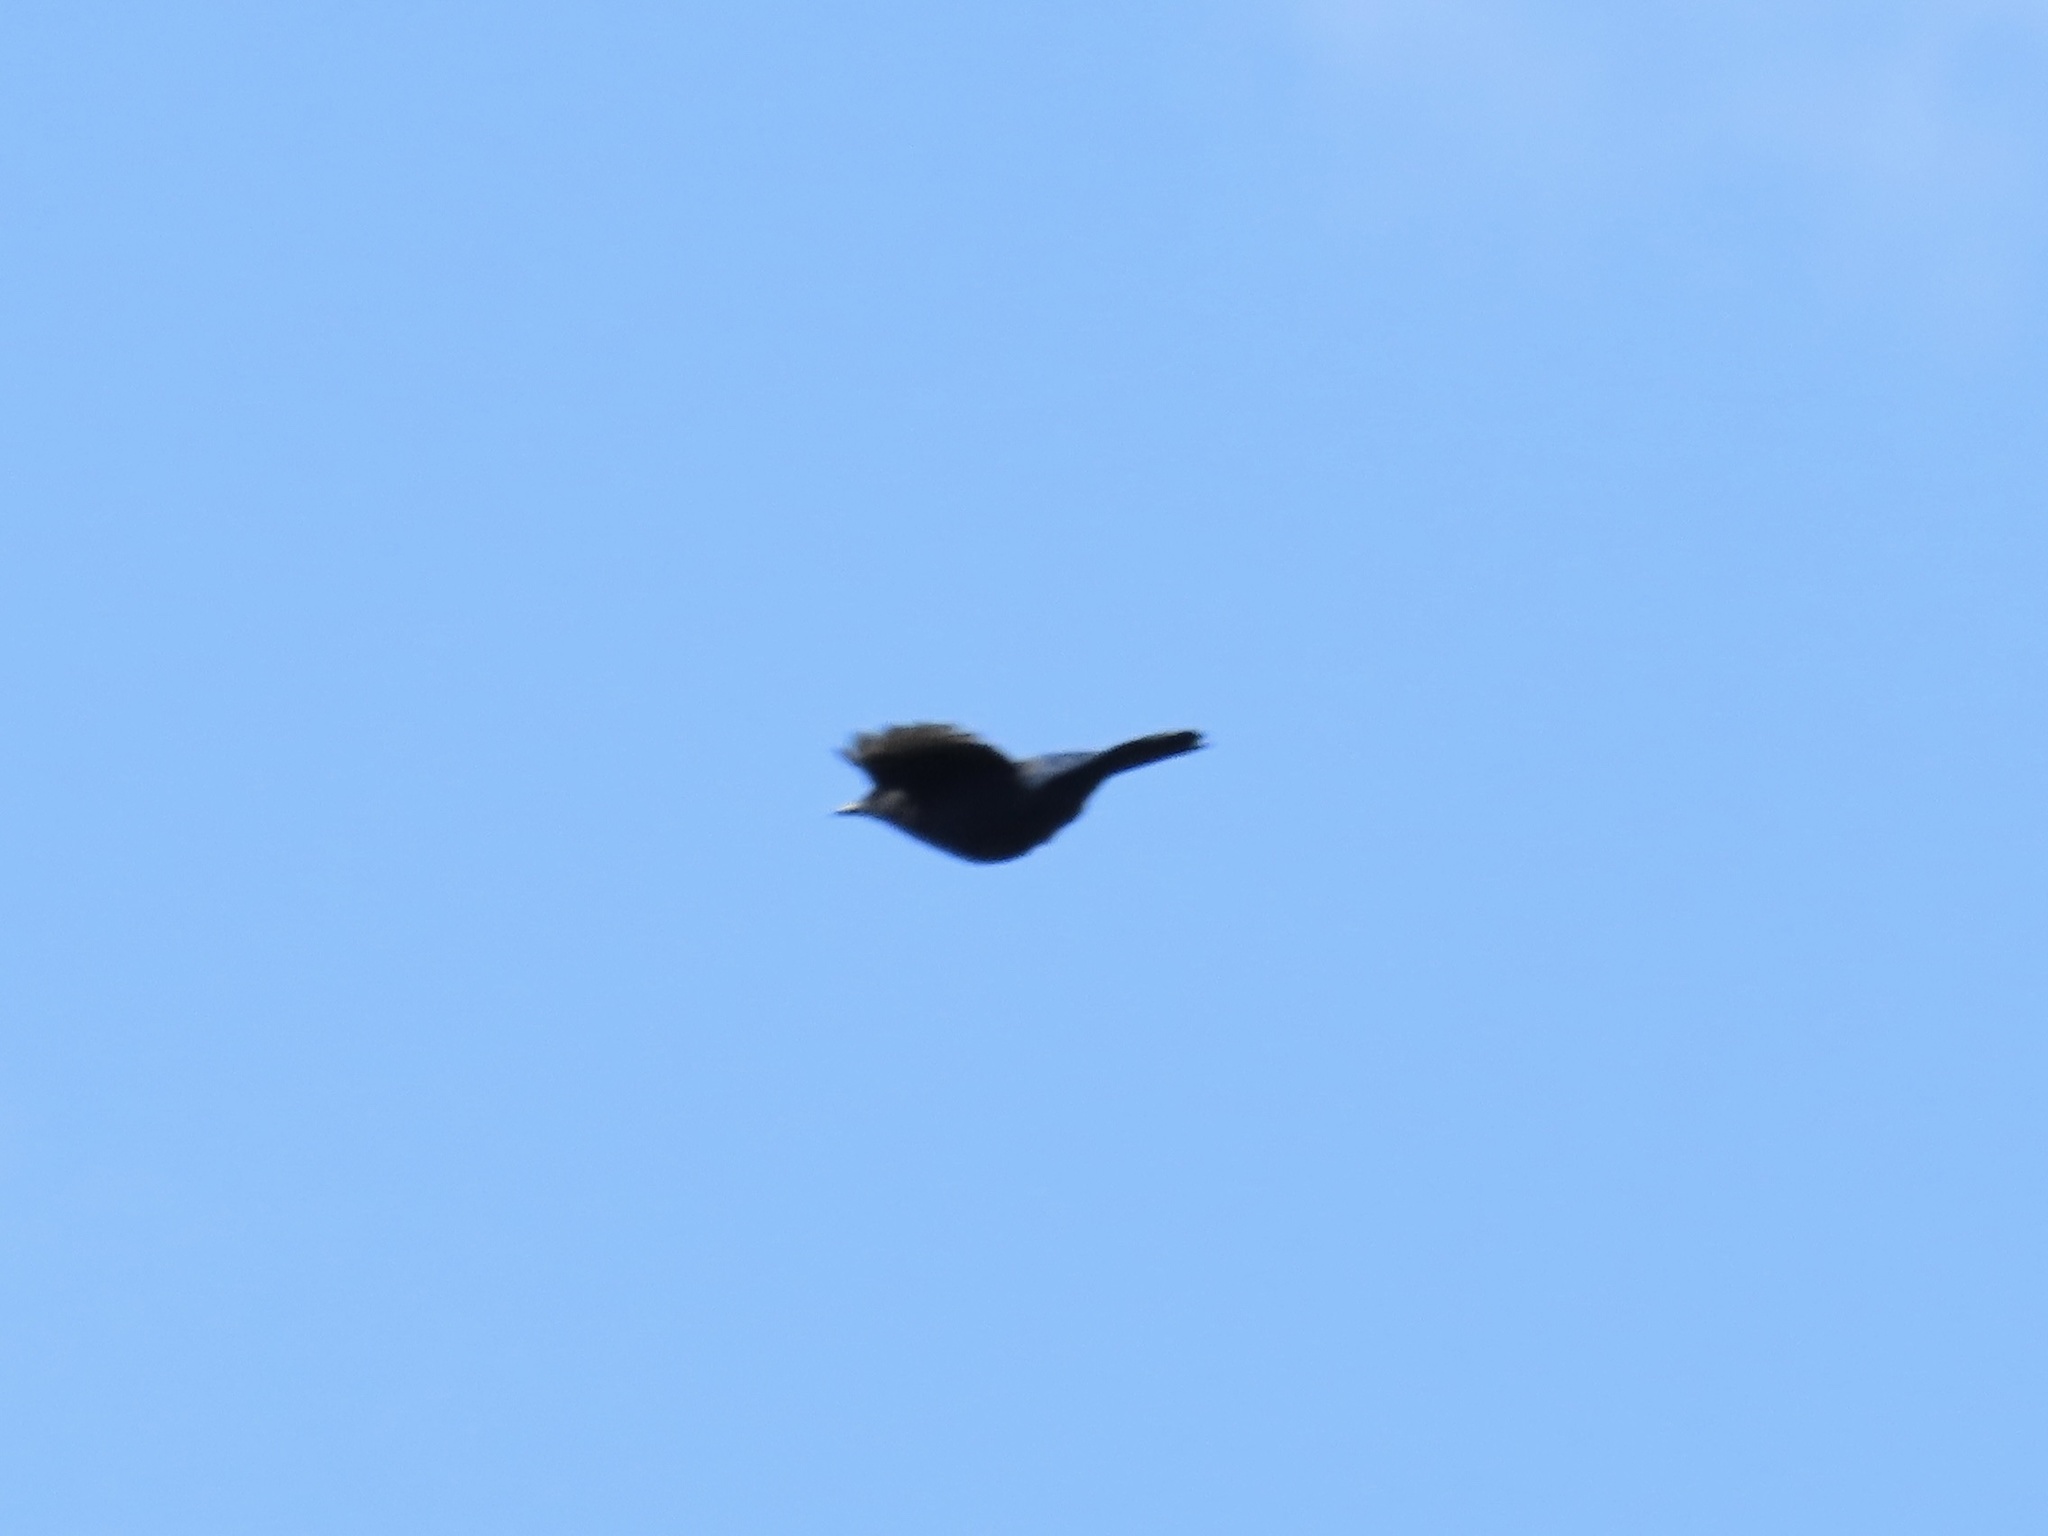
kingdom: Animalia
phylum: Chordata
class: Aves
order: Passeriformes
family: Corvidae
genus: Cyanocitta
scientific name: Cyanocitta stelleri
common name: Steller's jay
